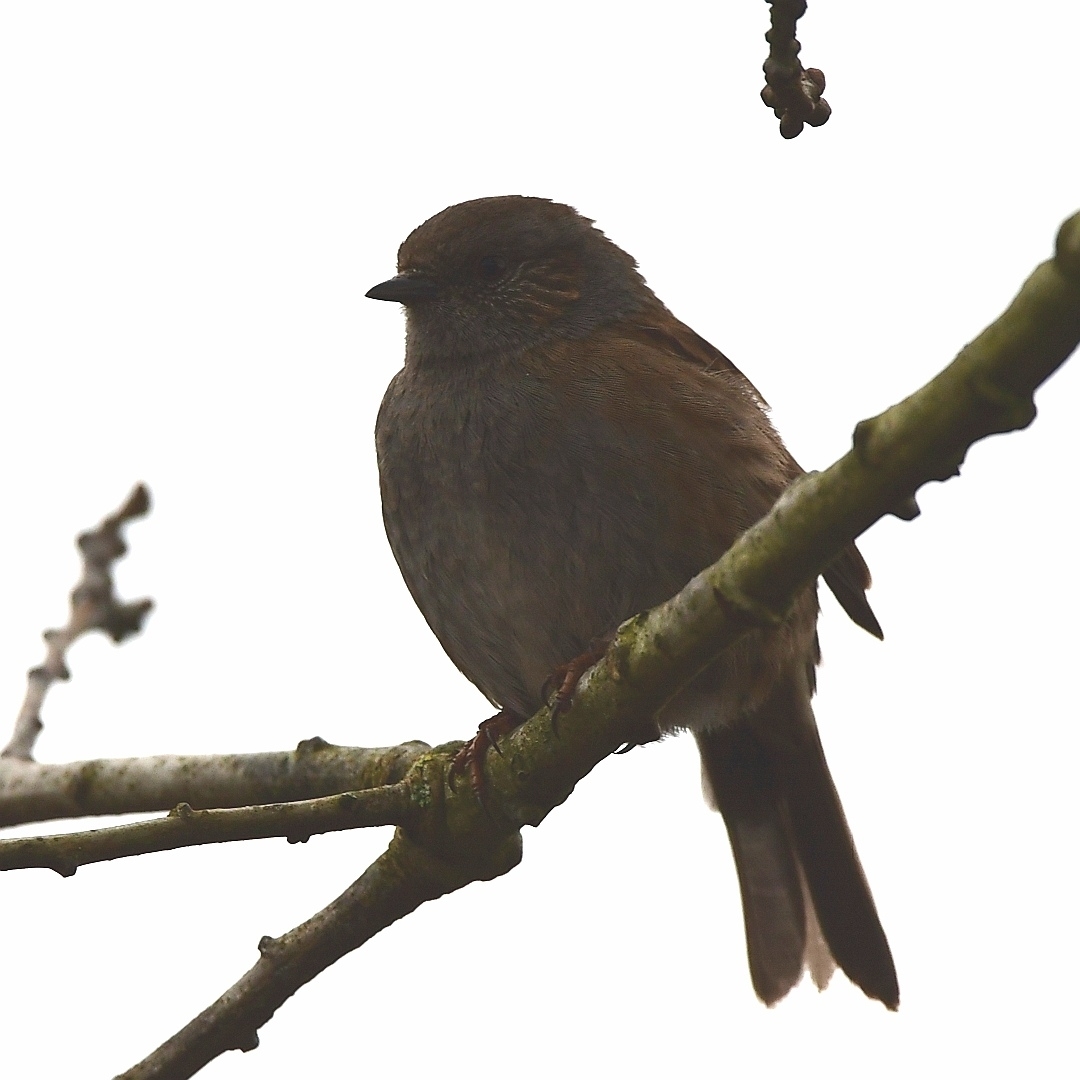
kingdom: Animalia
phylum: Chordata
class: Aves
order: Passeriformes
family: Prunellidae
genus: Prunella
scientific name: Prunella modularis
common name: Dunnock
